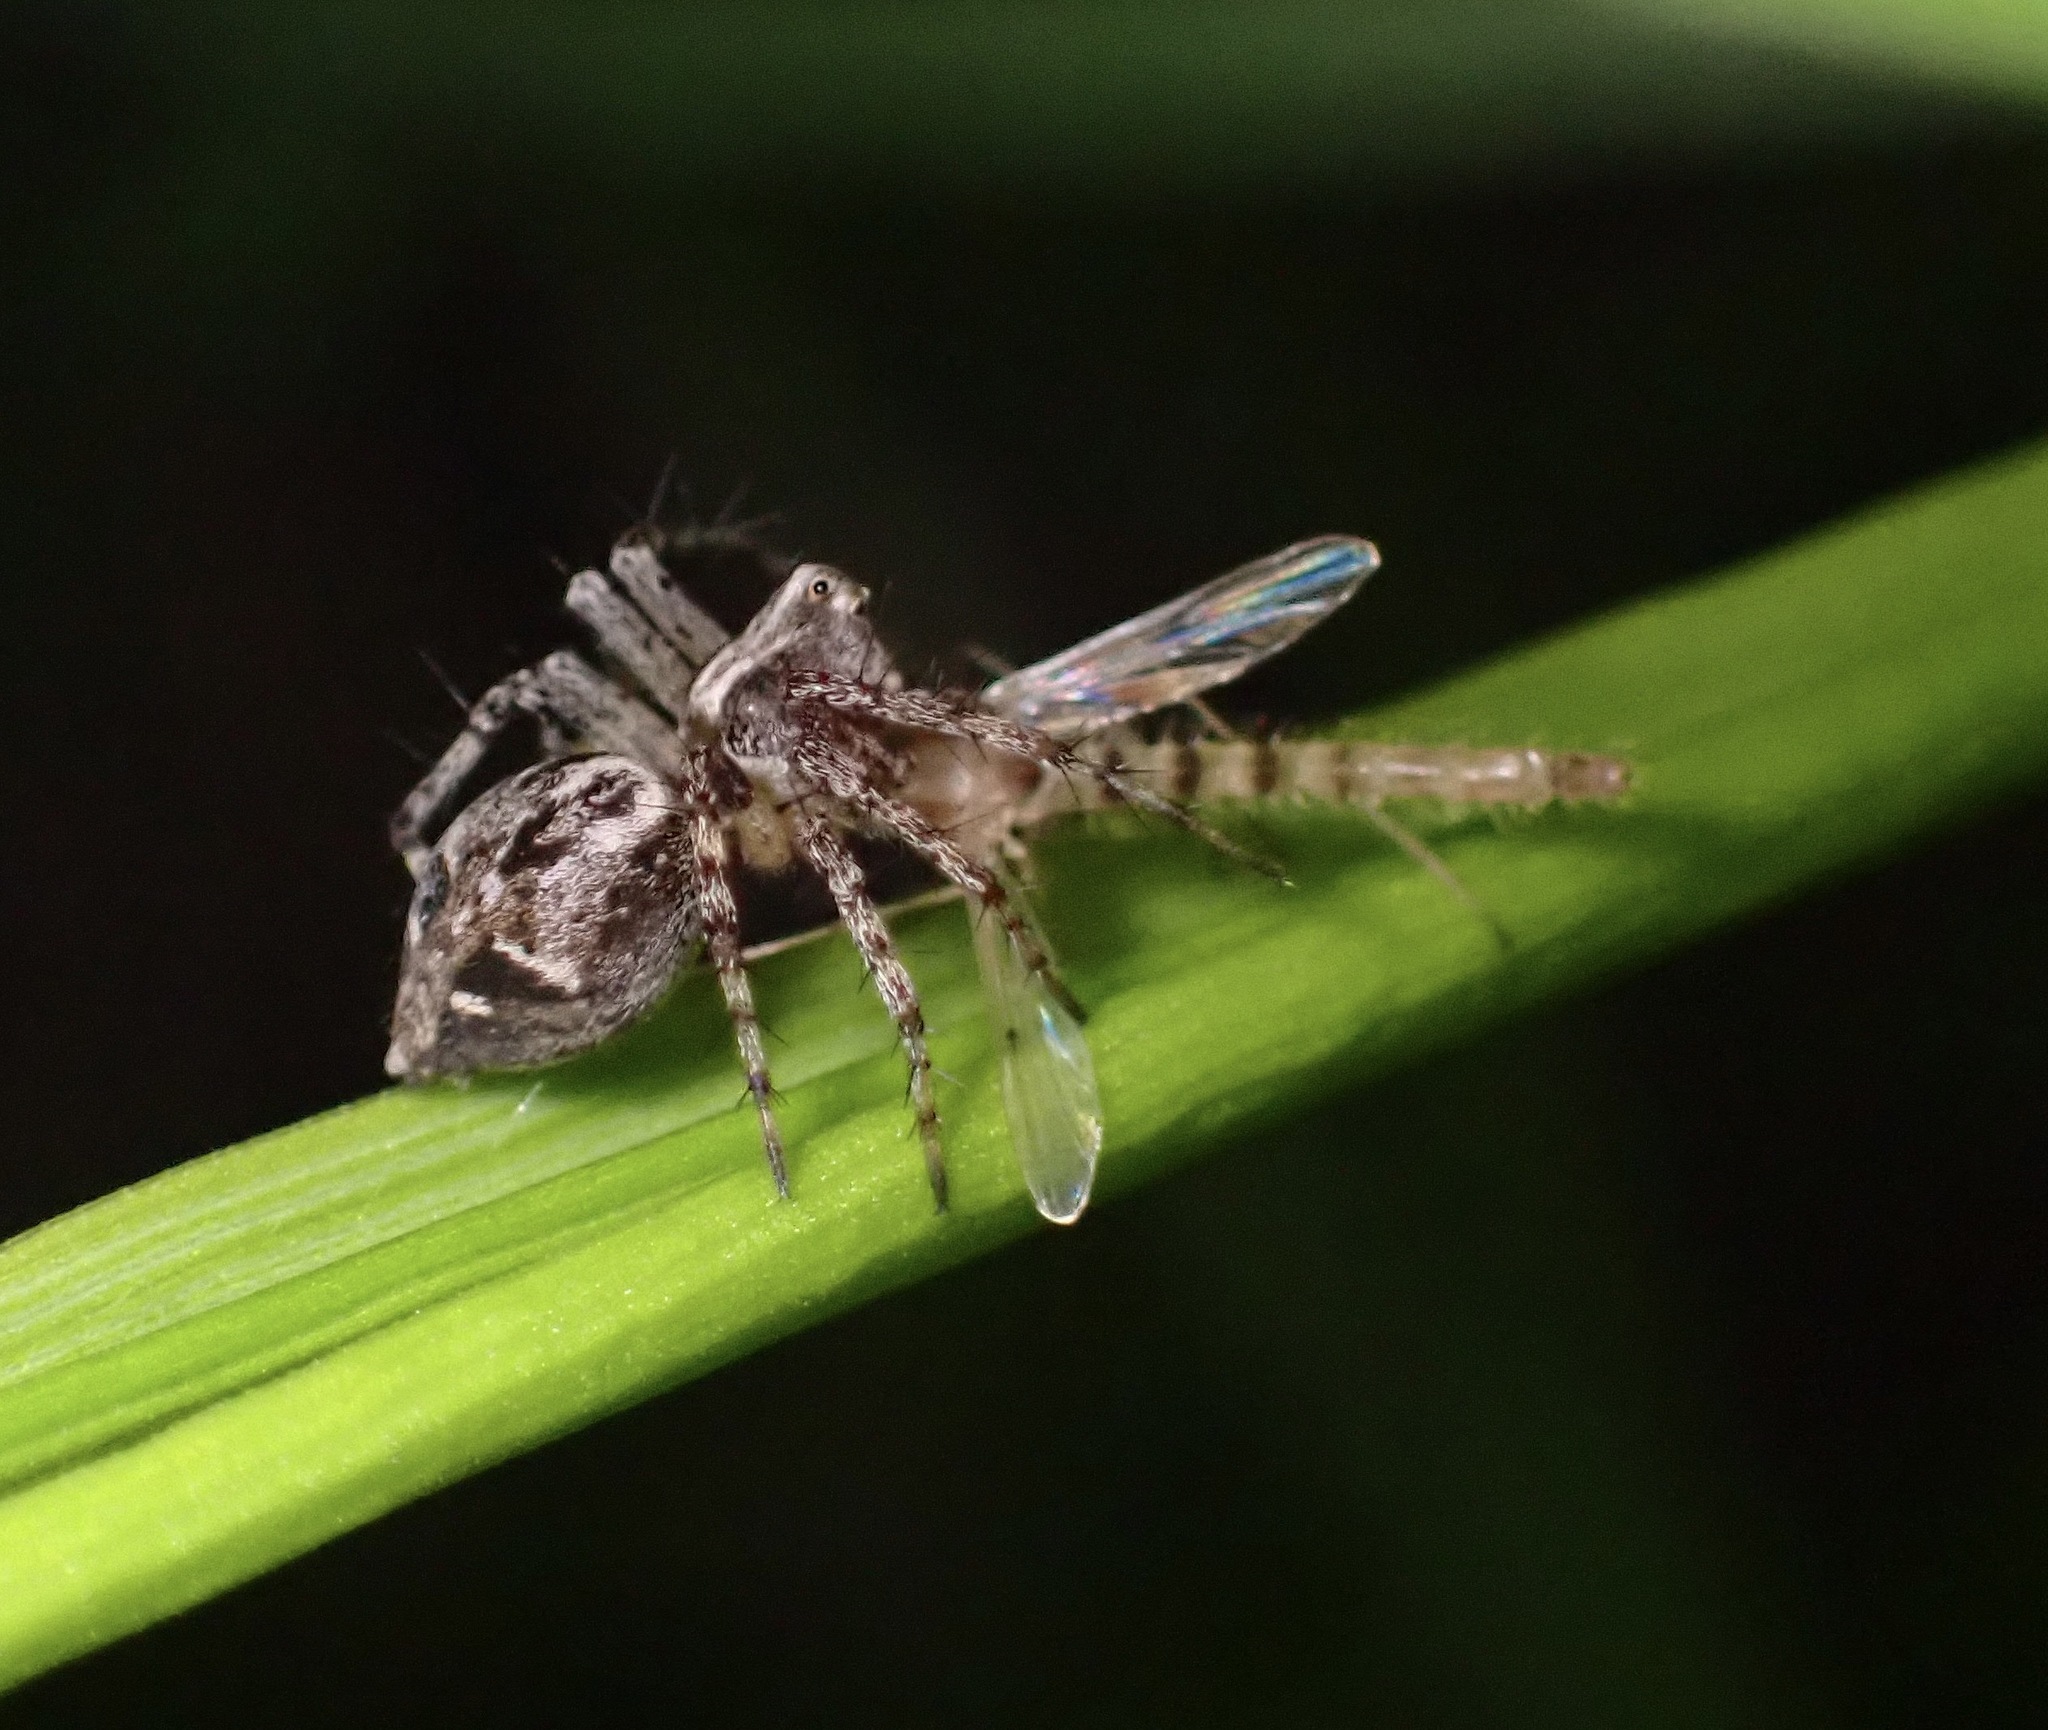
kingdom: Animalia
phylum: Arthropoda
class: Arachnida
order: Araneae
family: Oxyopidae
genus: Oxyopes
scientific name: Oxyopes scalaris
